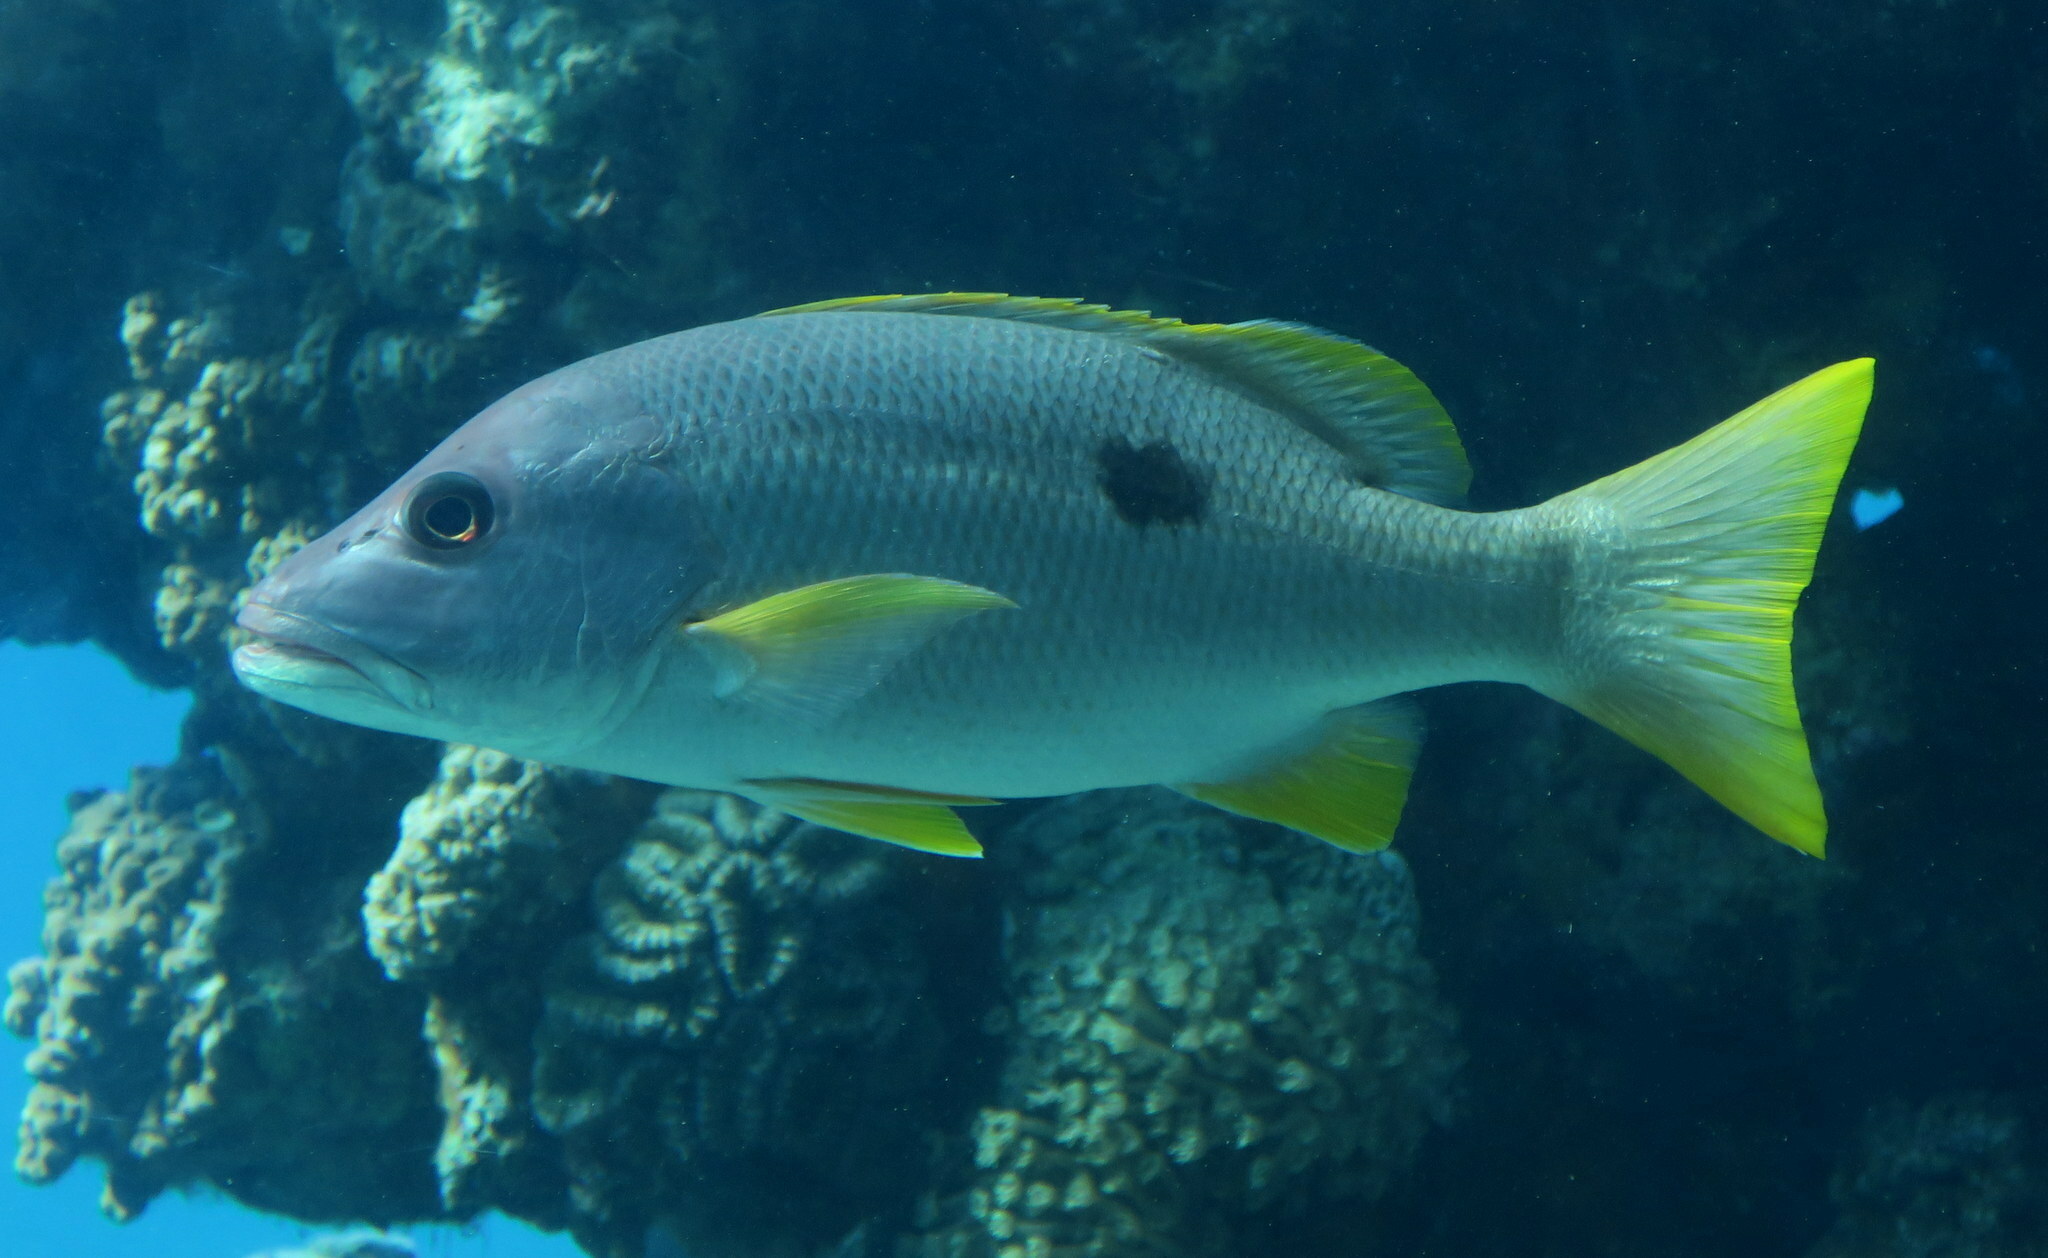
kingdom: Animalia
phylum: Chordata
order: Perciformes
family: Lutjanidae
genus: Lutjanus
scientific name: Lutjanus monostigma
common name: Onespot snapper
